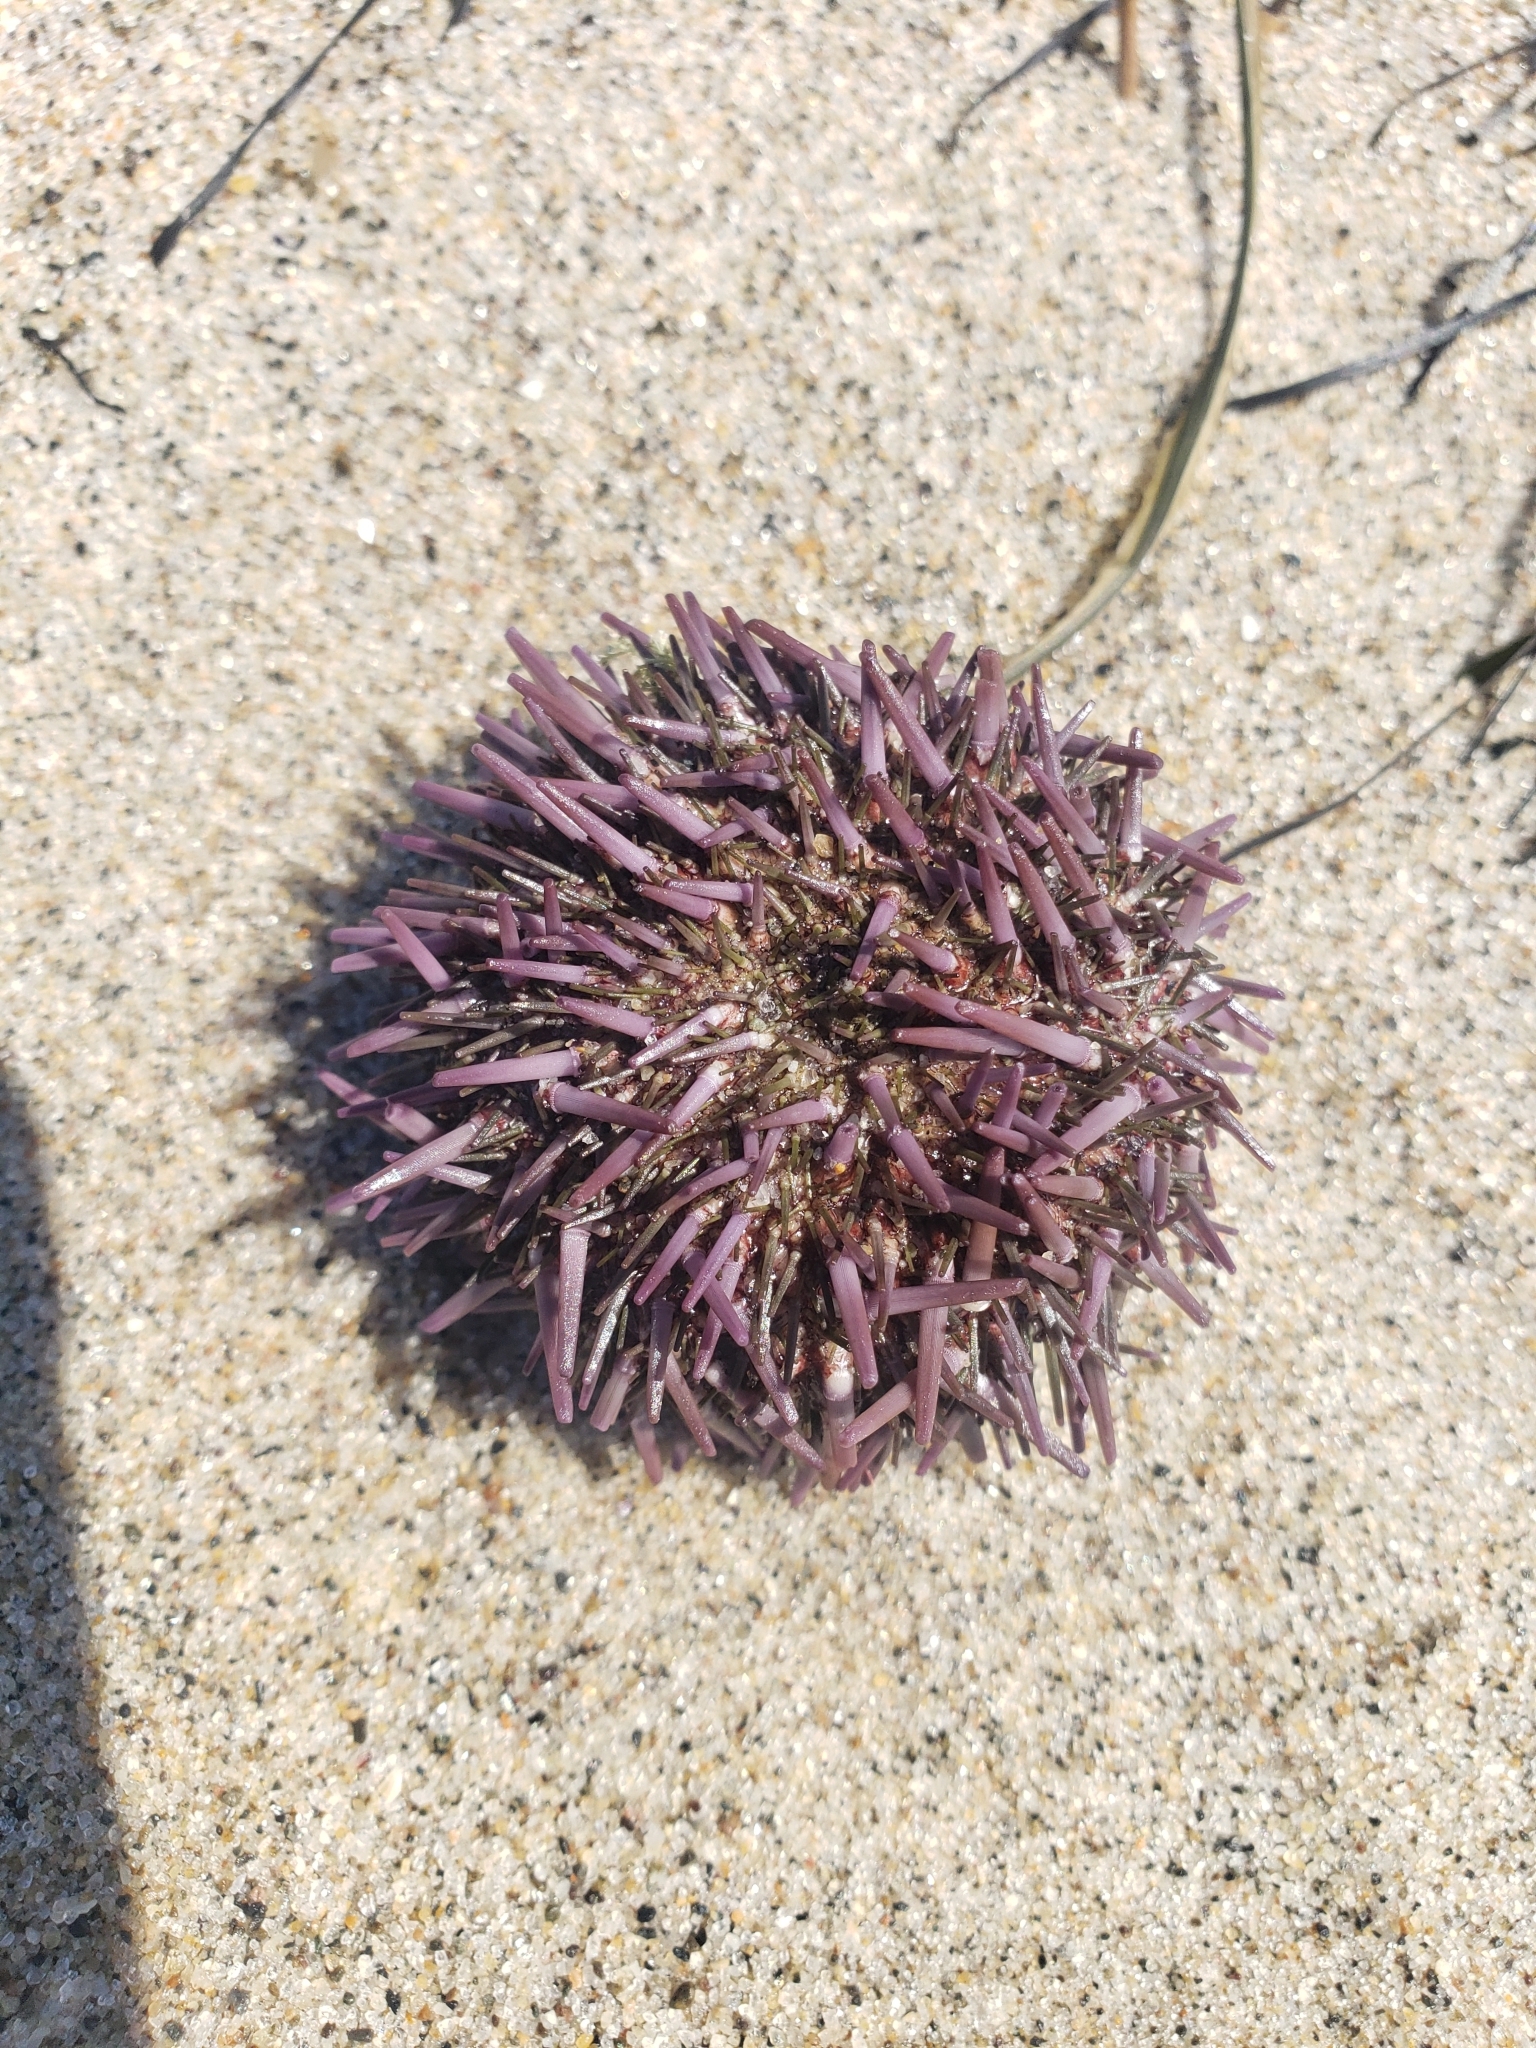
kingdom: Animalia
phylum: Echinodermata
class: Echinoidea
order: Camarodonta
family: Strongylocentrotidae
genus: Strongylocentrotus
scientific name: Strongylocentrotus purpuratus
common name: Purple sea urchin
